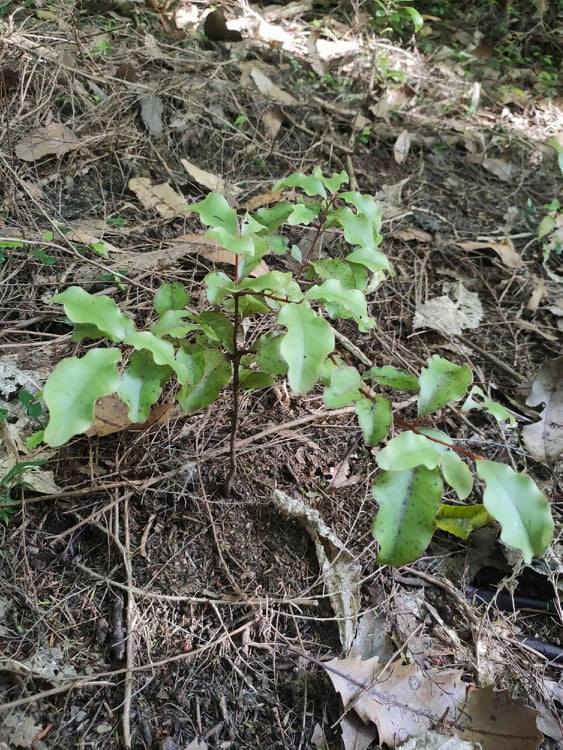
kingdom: Plantae
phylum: Tracheophyta
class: Magnoliopsida
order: Ericales
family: Primulaceae
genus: Myrsine
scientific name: Myrsine australis
